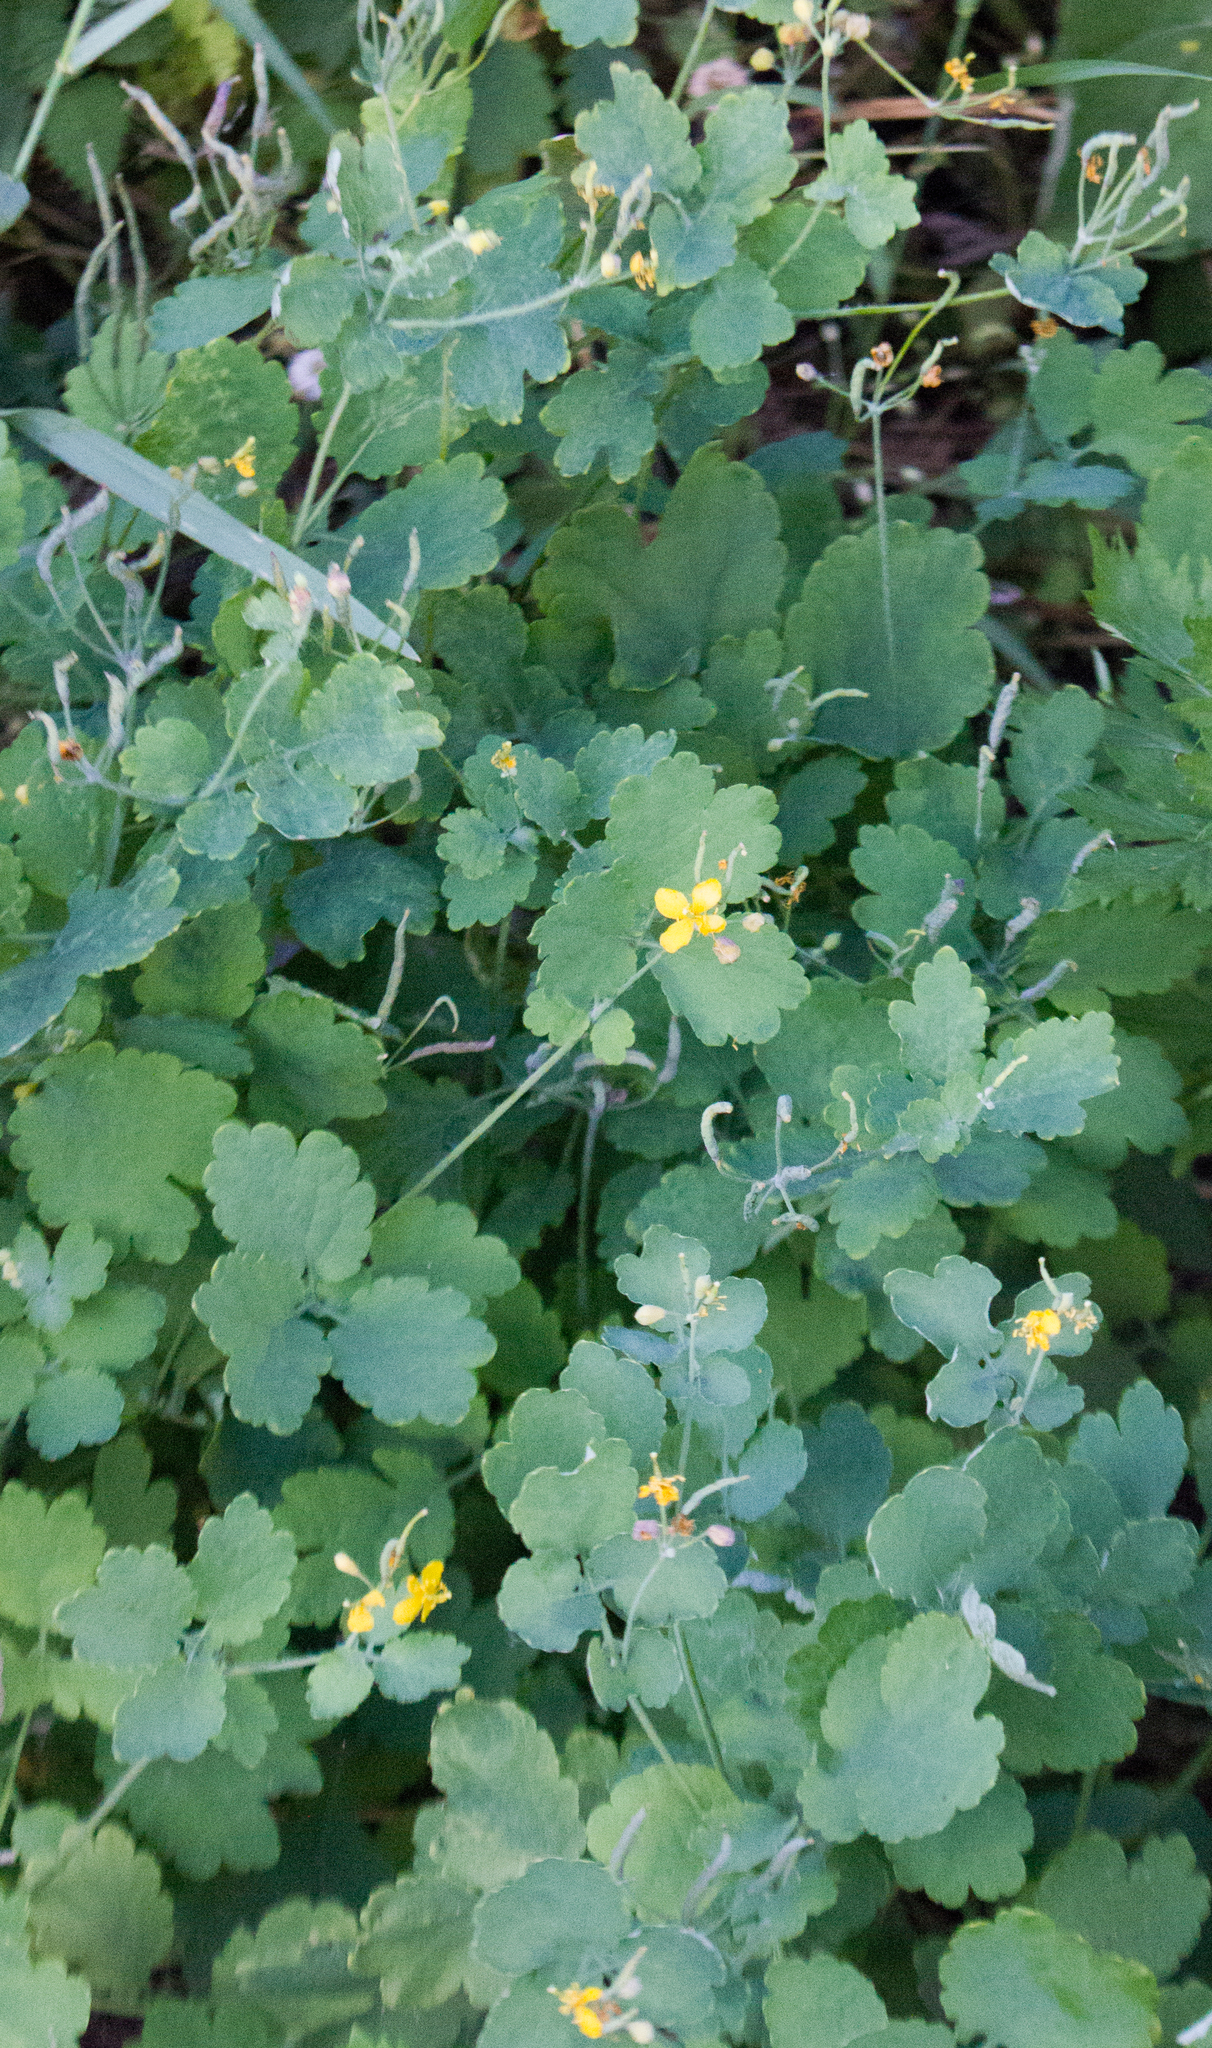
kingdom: Plantae
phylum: Tracheophyta
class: Magnoliopsida
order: Ranunculales
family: Papaveraceae
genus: Chelidonium
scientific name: Chelidonium majus
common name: Greater celandine
